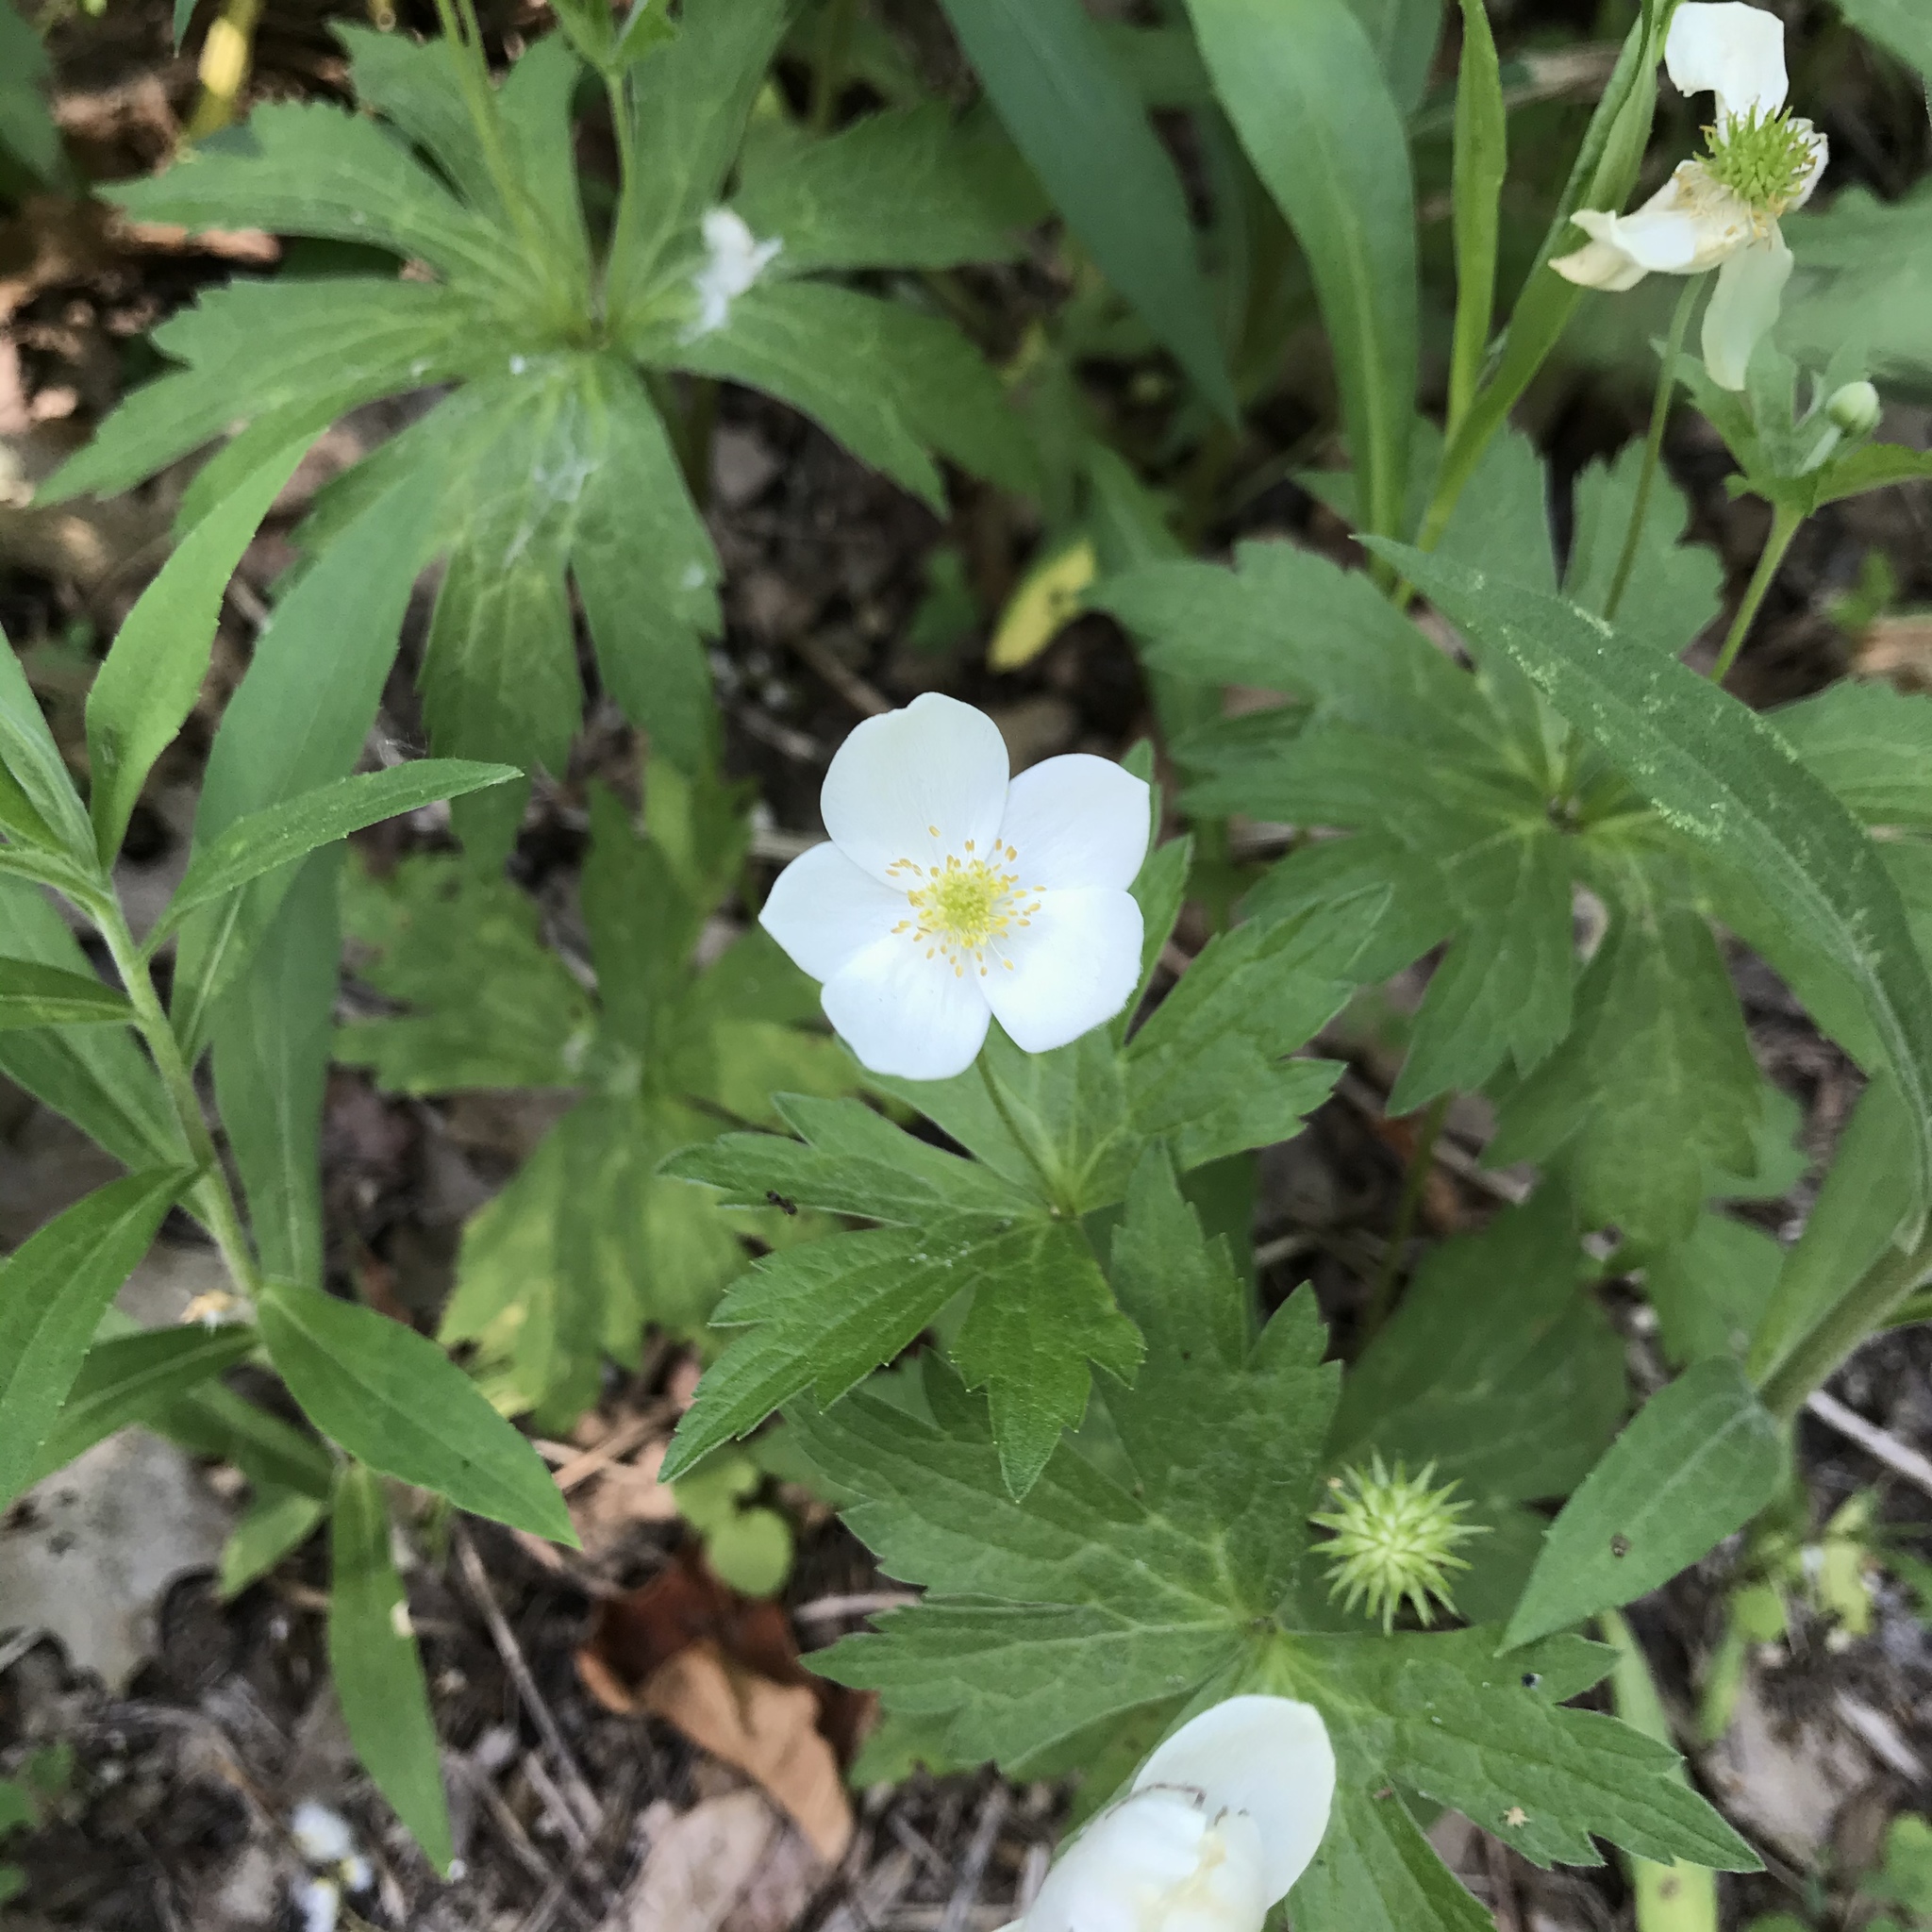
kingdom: Plantae
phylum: Tracheophyta
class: Magnoliopsida
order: Ranunculales
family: Ranunculaceae
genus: Anemonastrum
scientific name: Anemonastrum canadense
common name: Canada anemone
